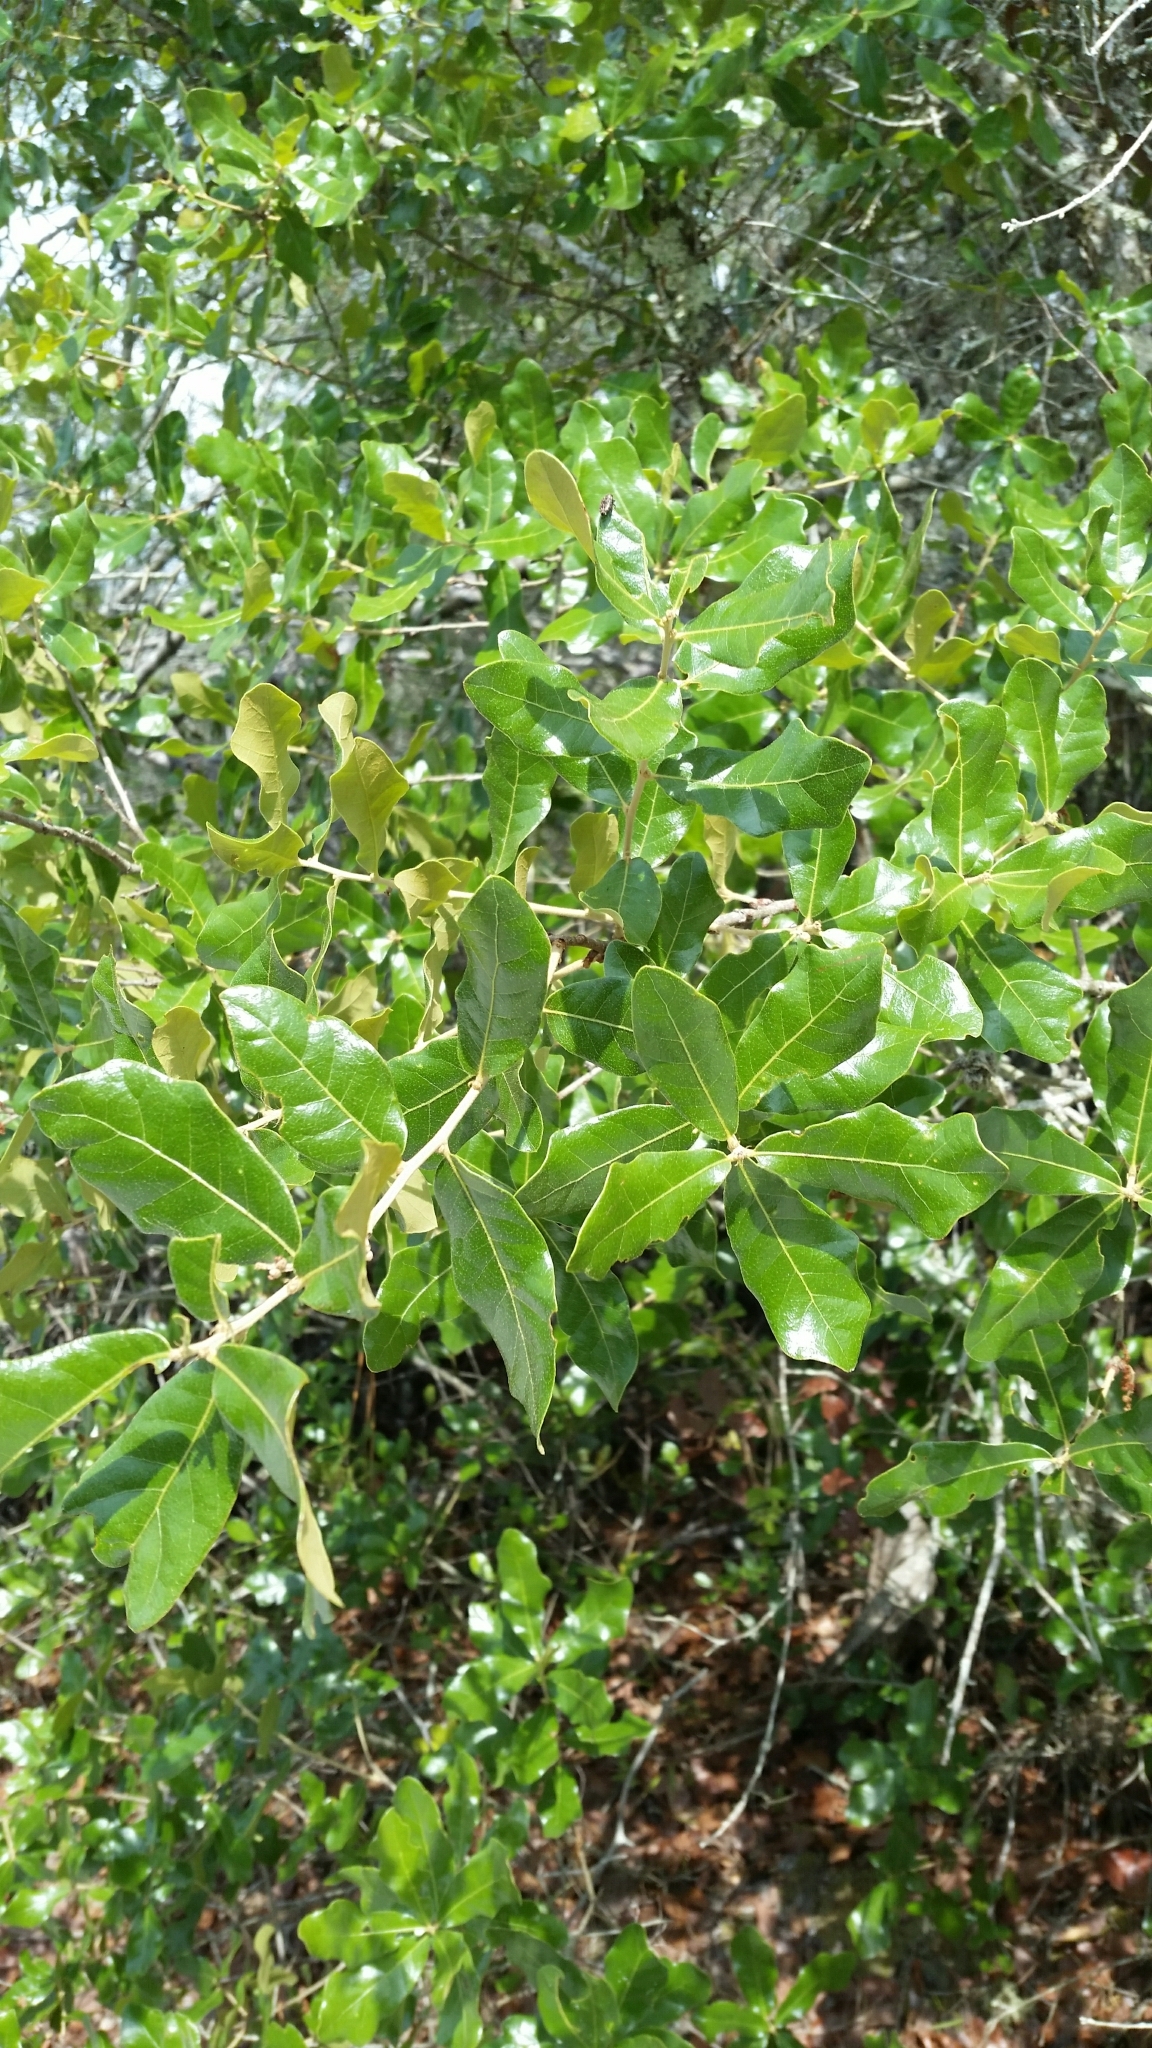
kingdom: Plantae
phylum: Tracheophyta
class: Magnoliopsida
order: Fagales
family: Fagaceae
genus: Quercus
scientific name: Quercus chapmanii
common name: Chapman oak
